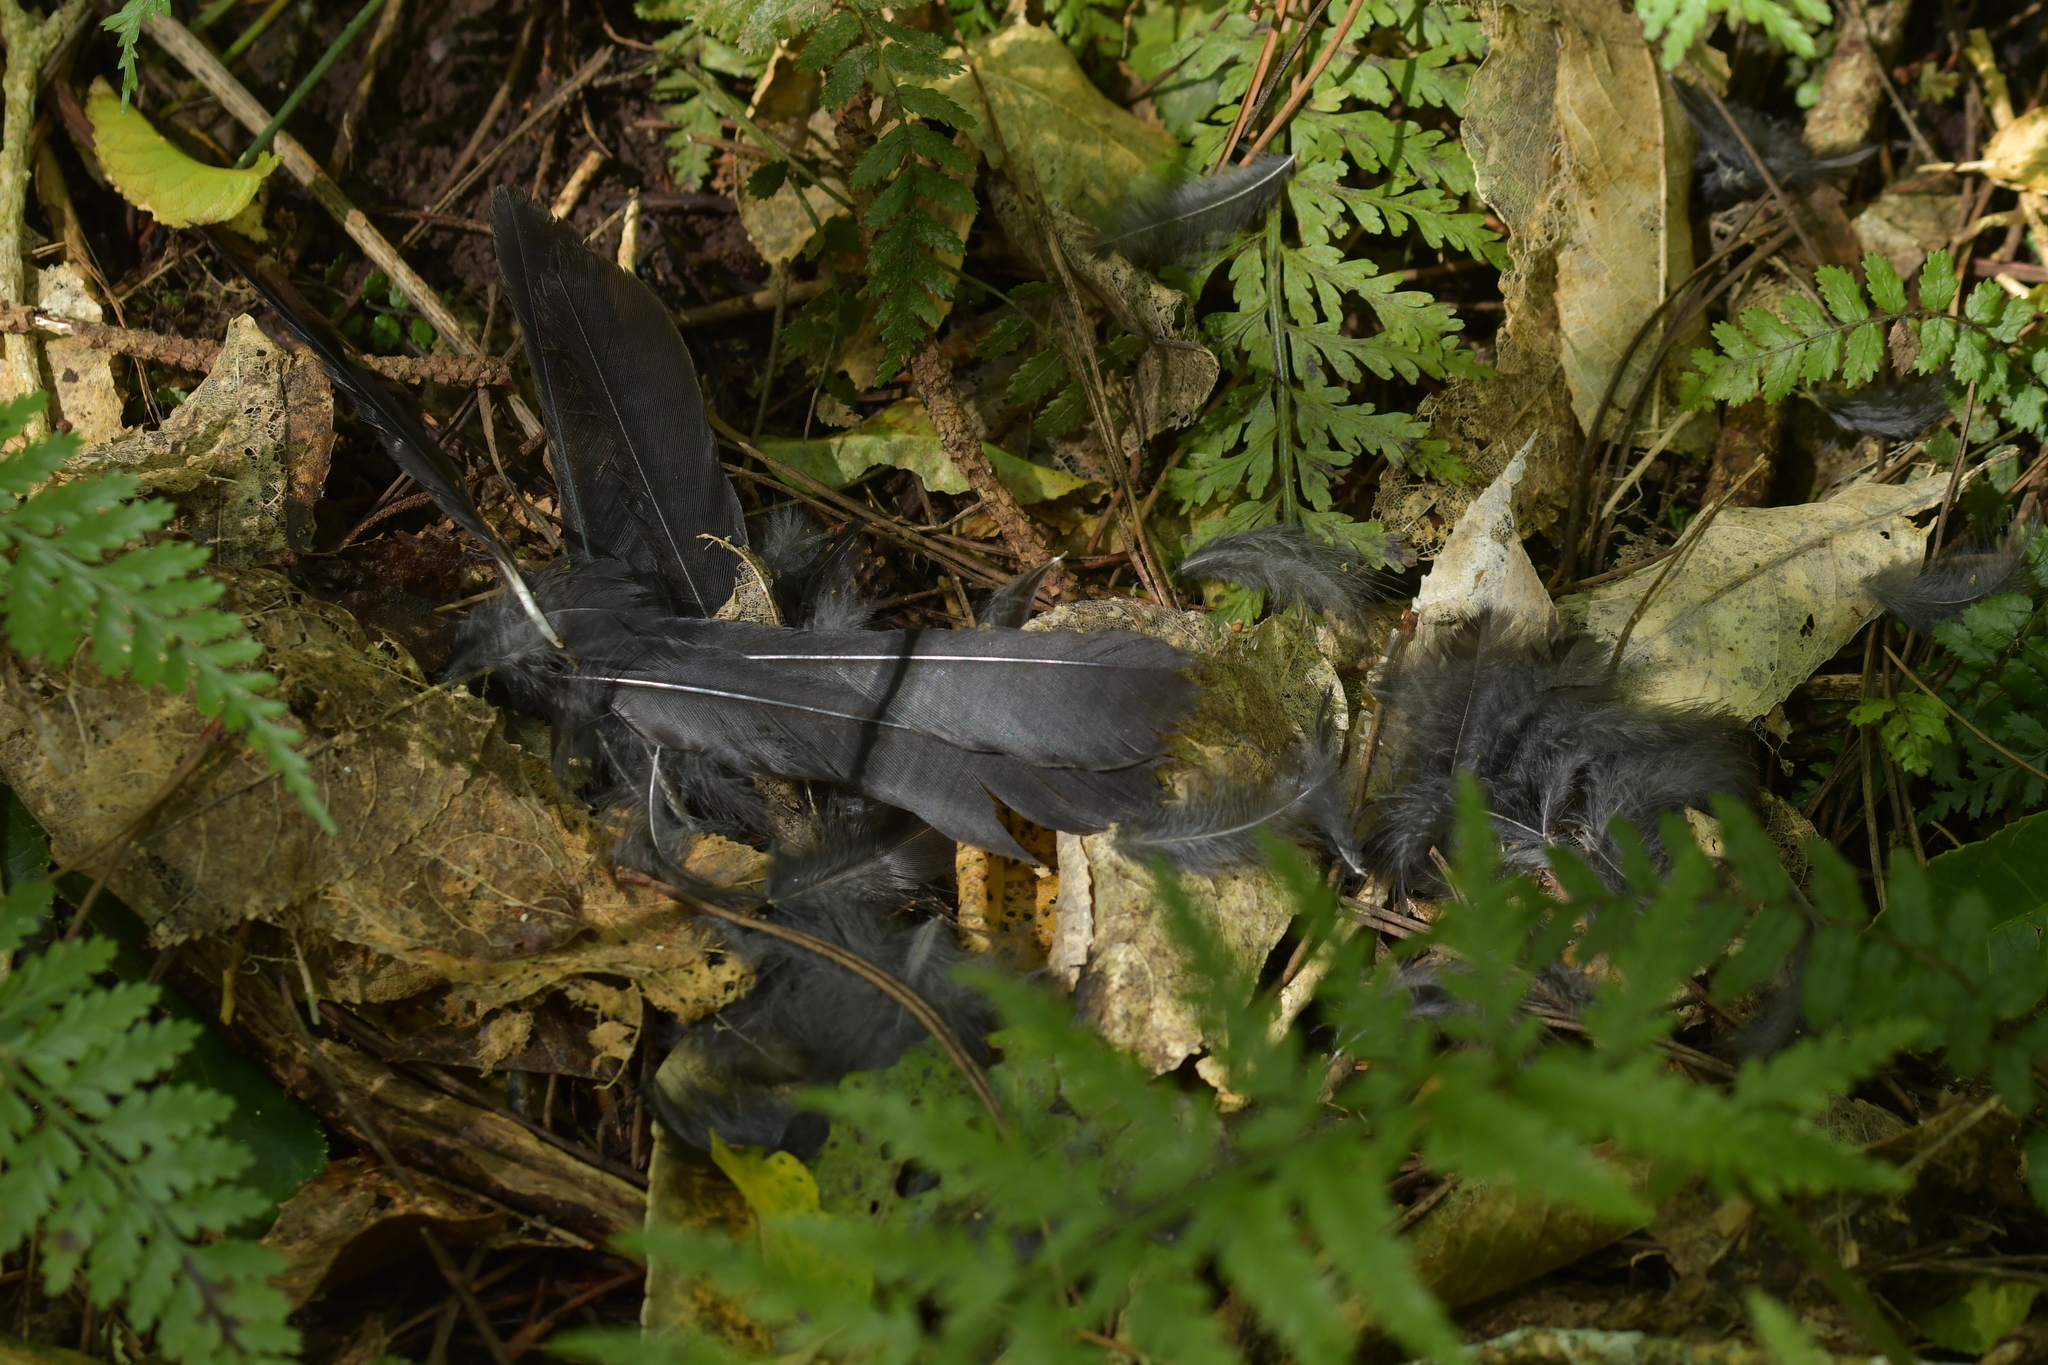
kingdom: Animalia
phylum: Chordata
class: Aves
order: Passeriformes
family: Petroicidae
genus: Petroica
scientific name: Petroica australis
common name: New zealand robin
